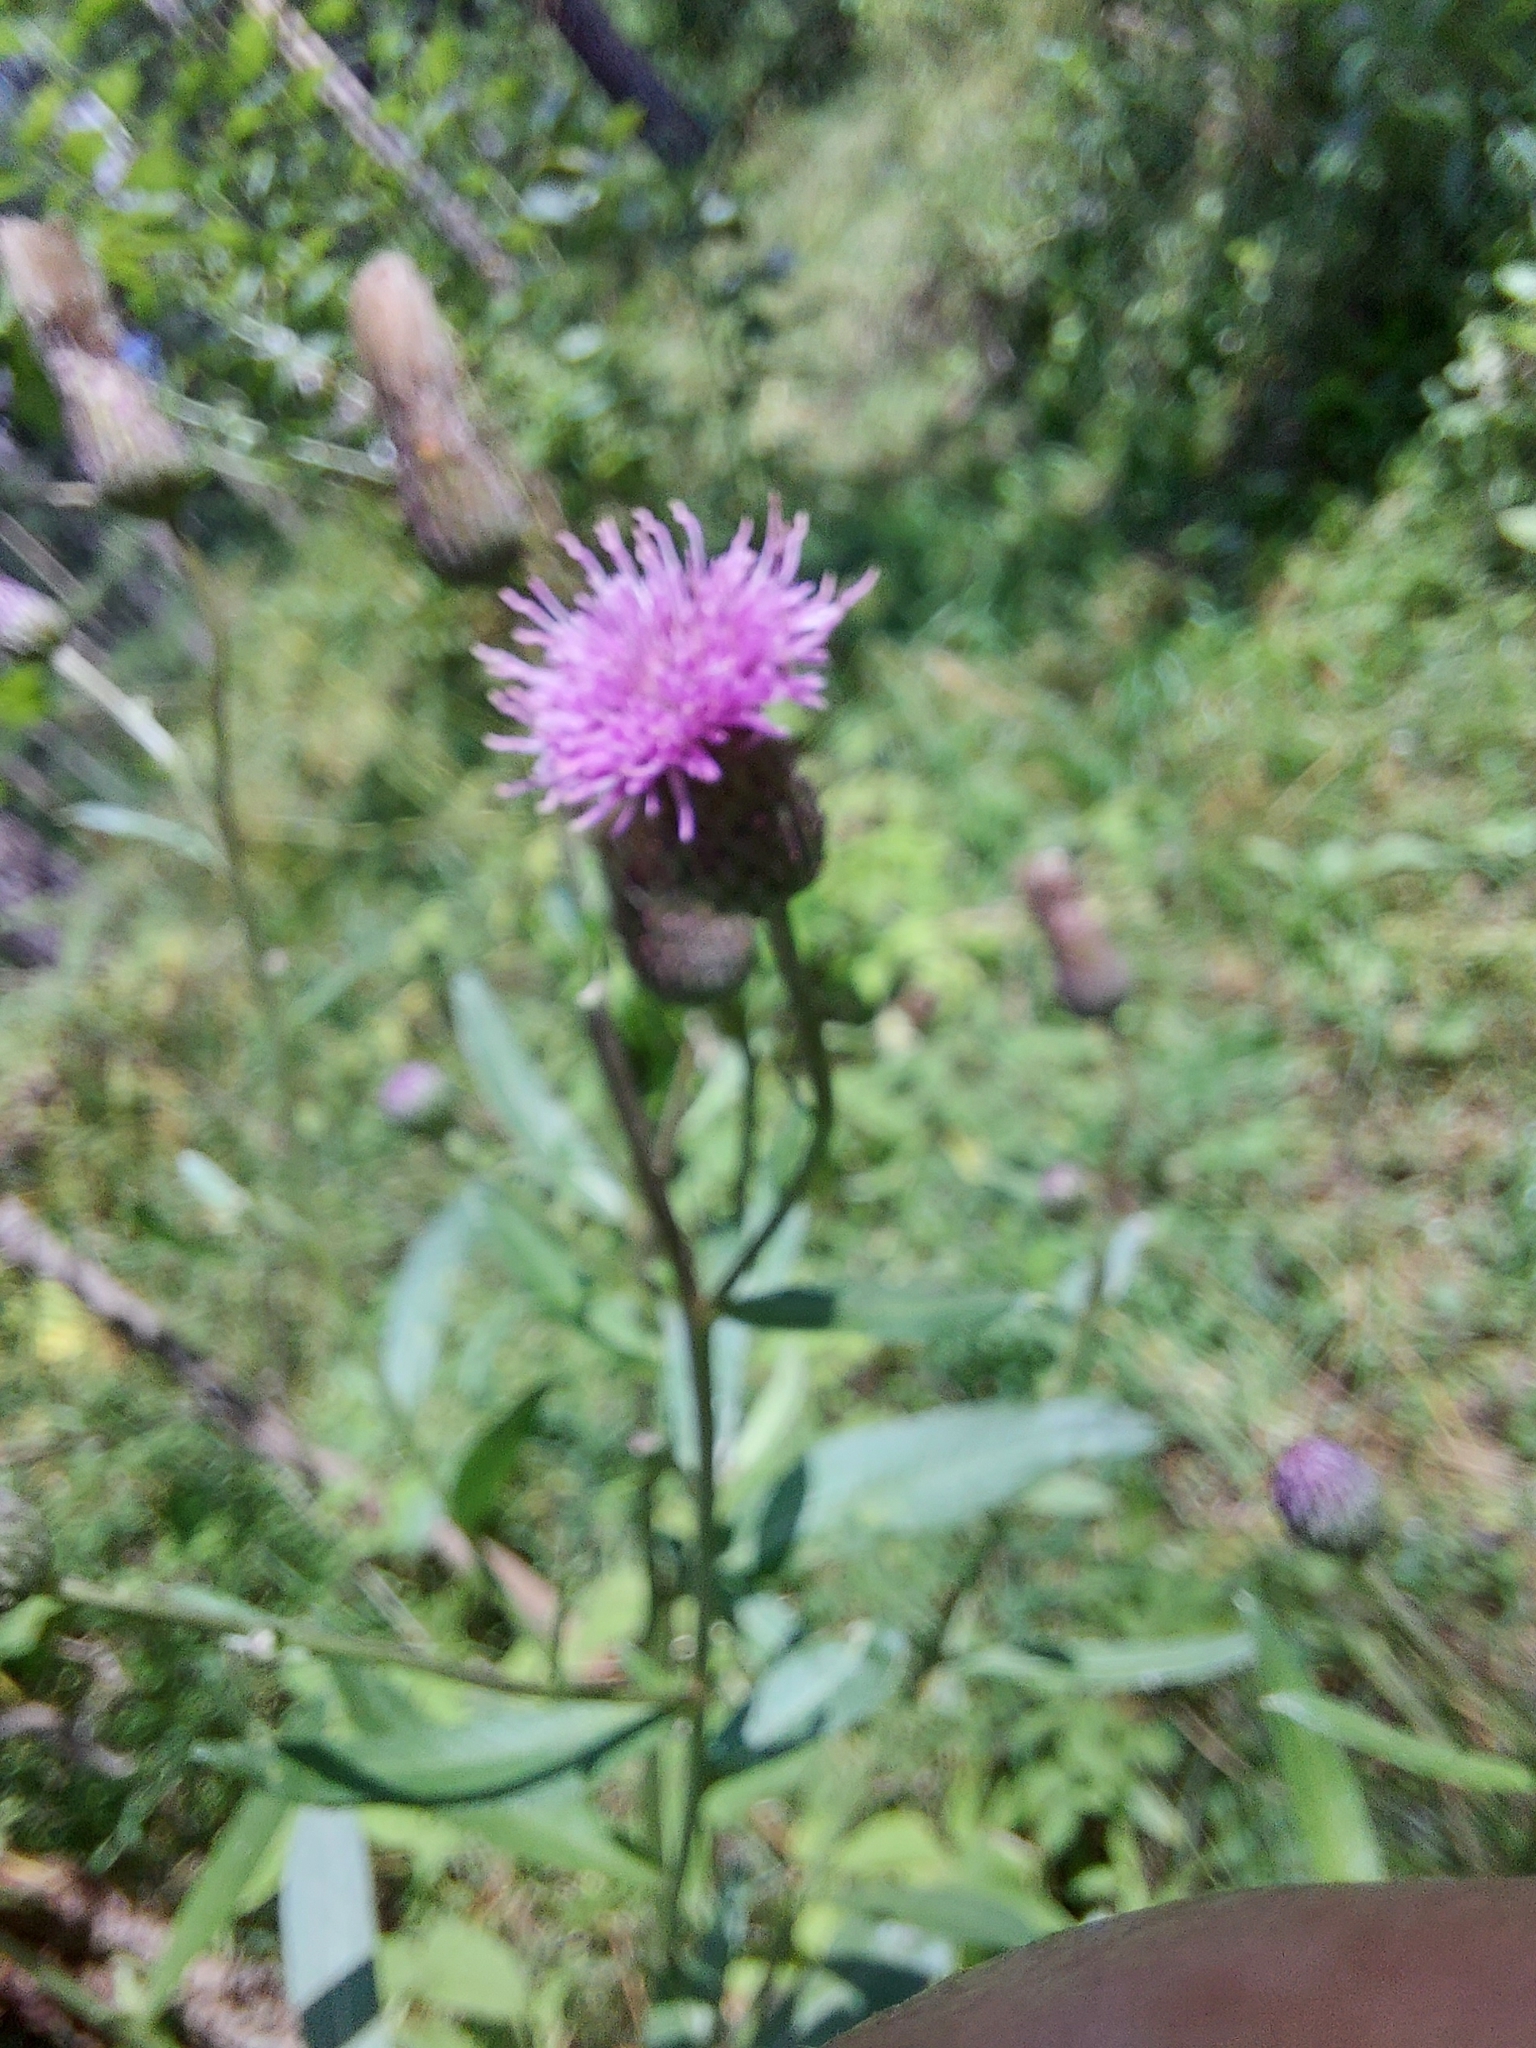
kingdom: Plantae
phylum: Tracheophyta
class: Magnoliopsida
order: Asterales
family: Asteraceae
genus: Cirsium
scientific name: Cirsium arvense
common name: Creeping thistle
